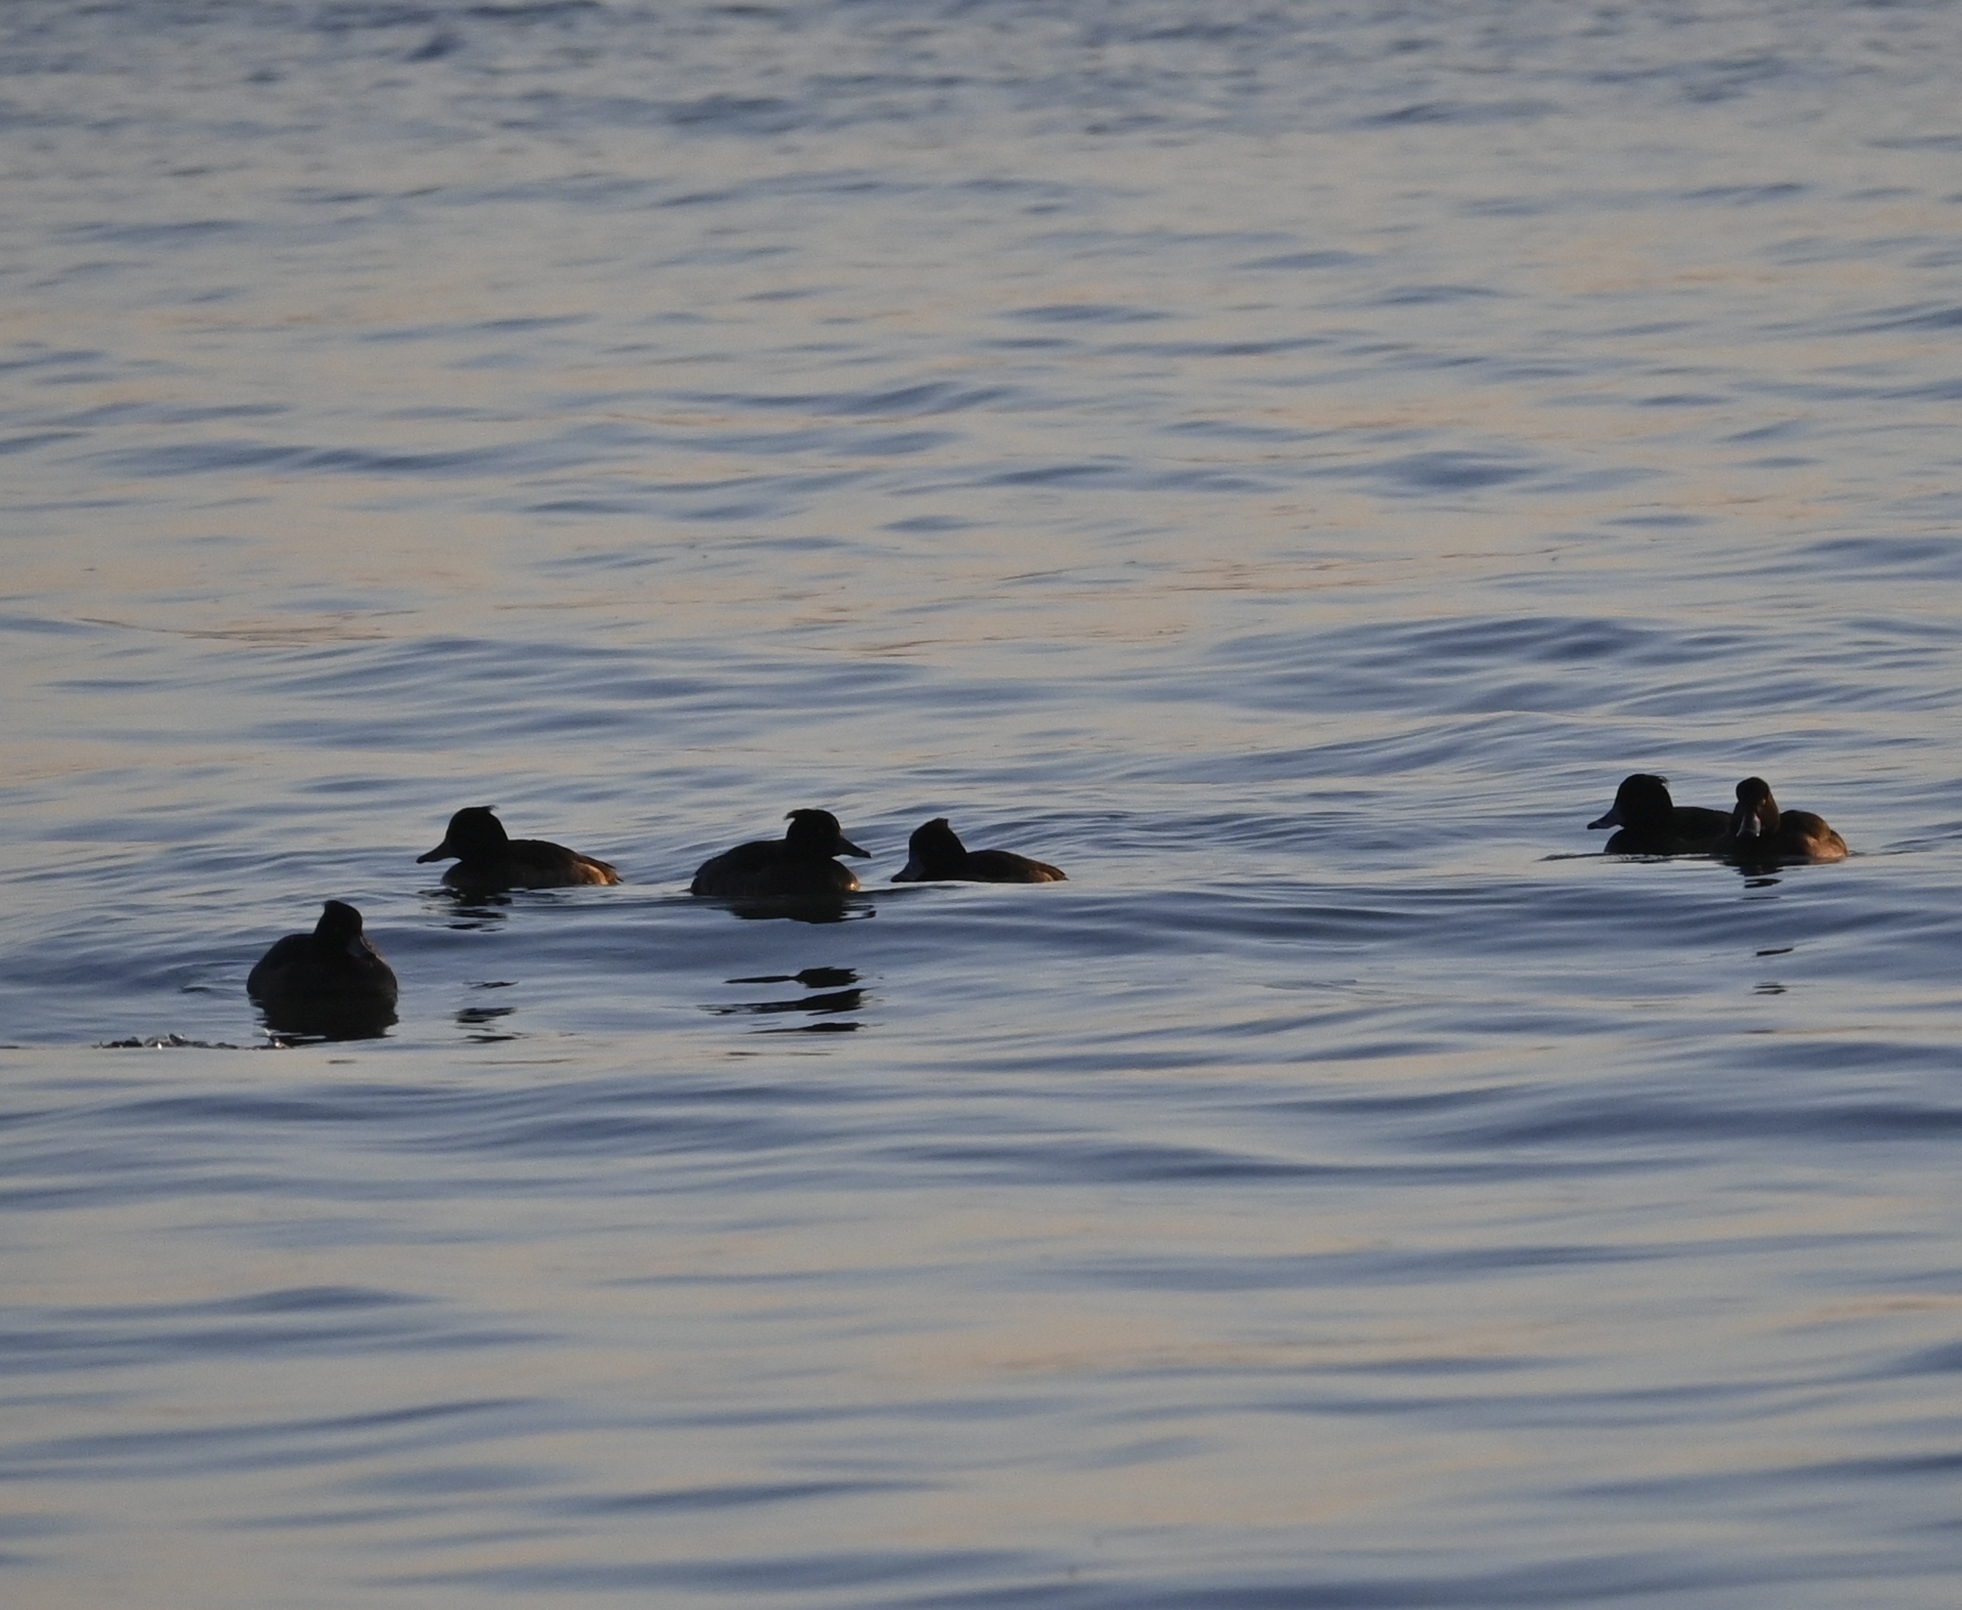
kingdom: Animalia
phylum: Chordata
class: Aves
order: Anseriformes
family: Anatidae
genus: Aythya
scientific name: Aythya fuligula
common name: Tufted duck
